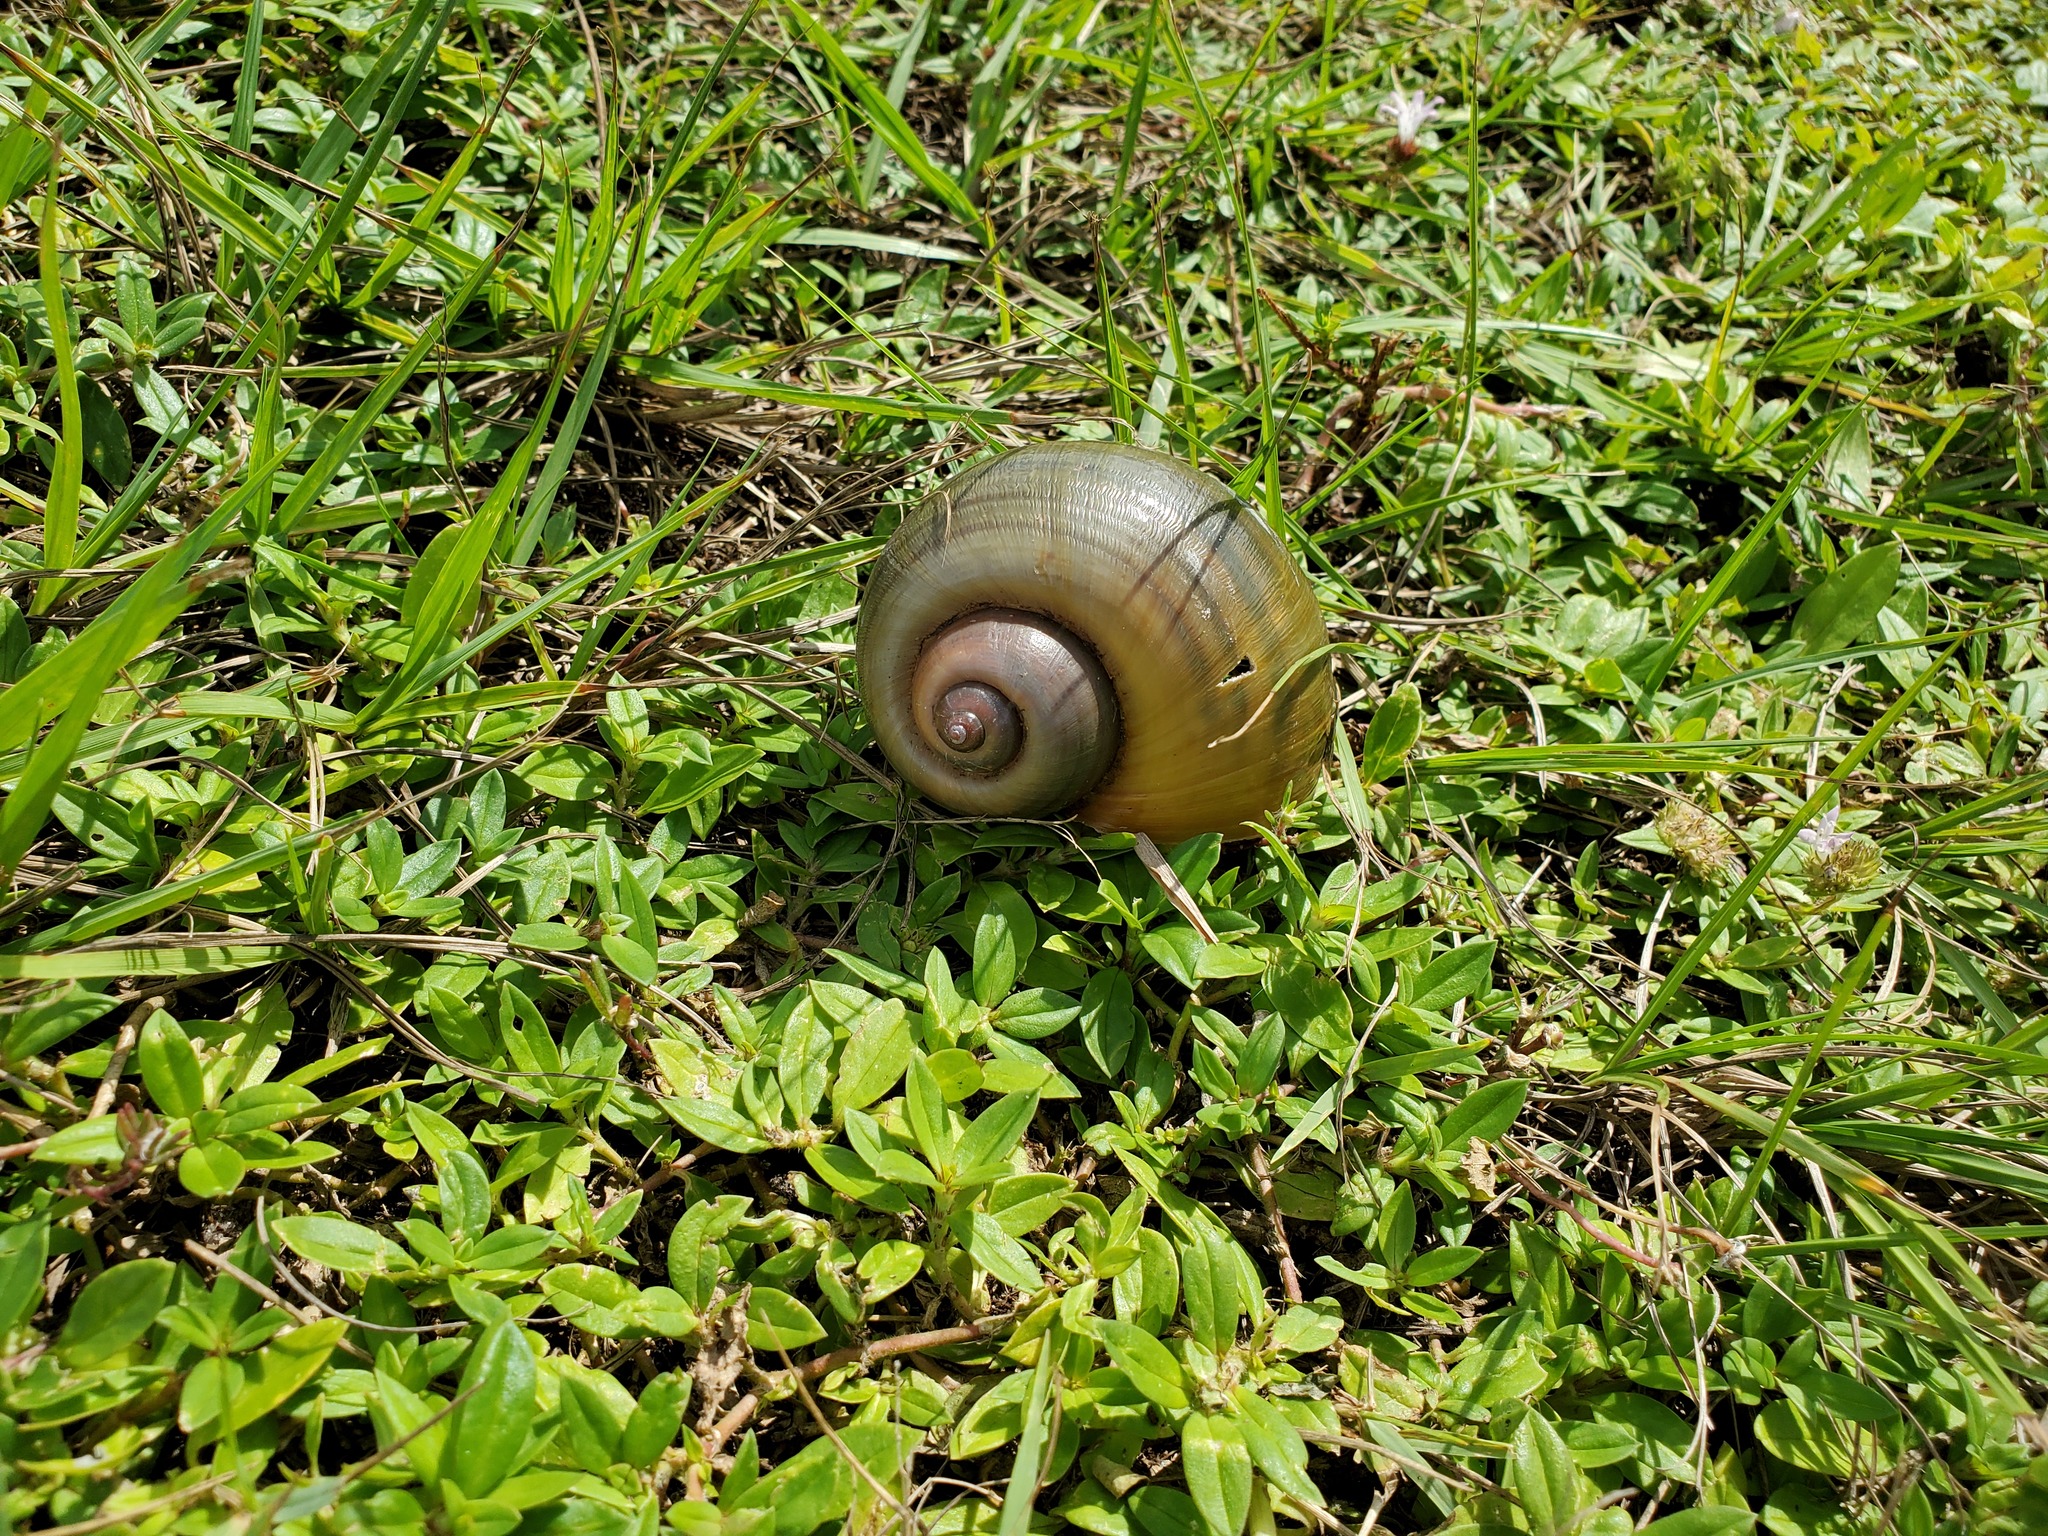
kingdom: Animalia
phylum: Mollusca
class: Gastropoda
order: Architaenioglossa
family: Ampullariidae
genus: Pomacea
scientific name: Pomacea maculata
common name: Giant applesnail
